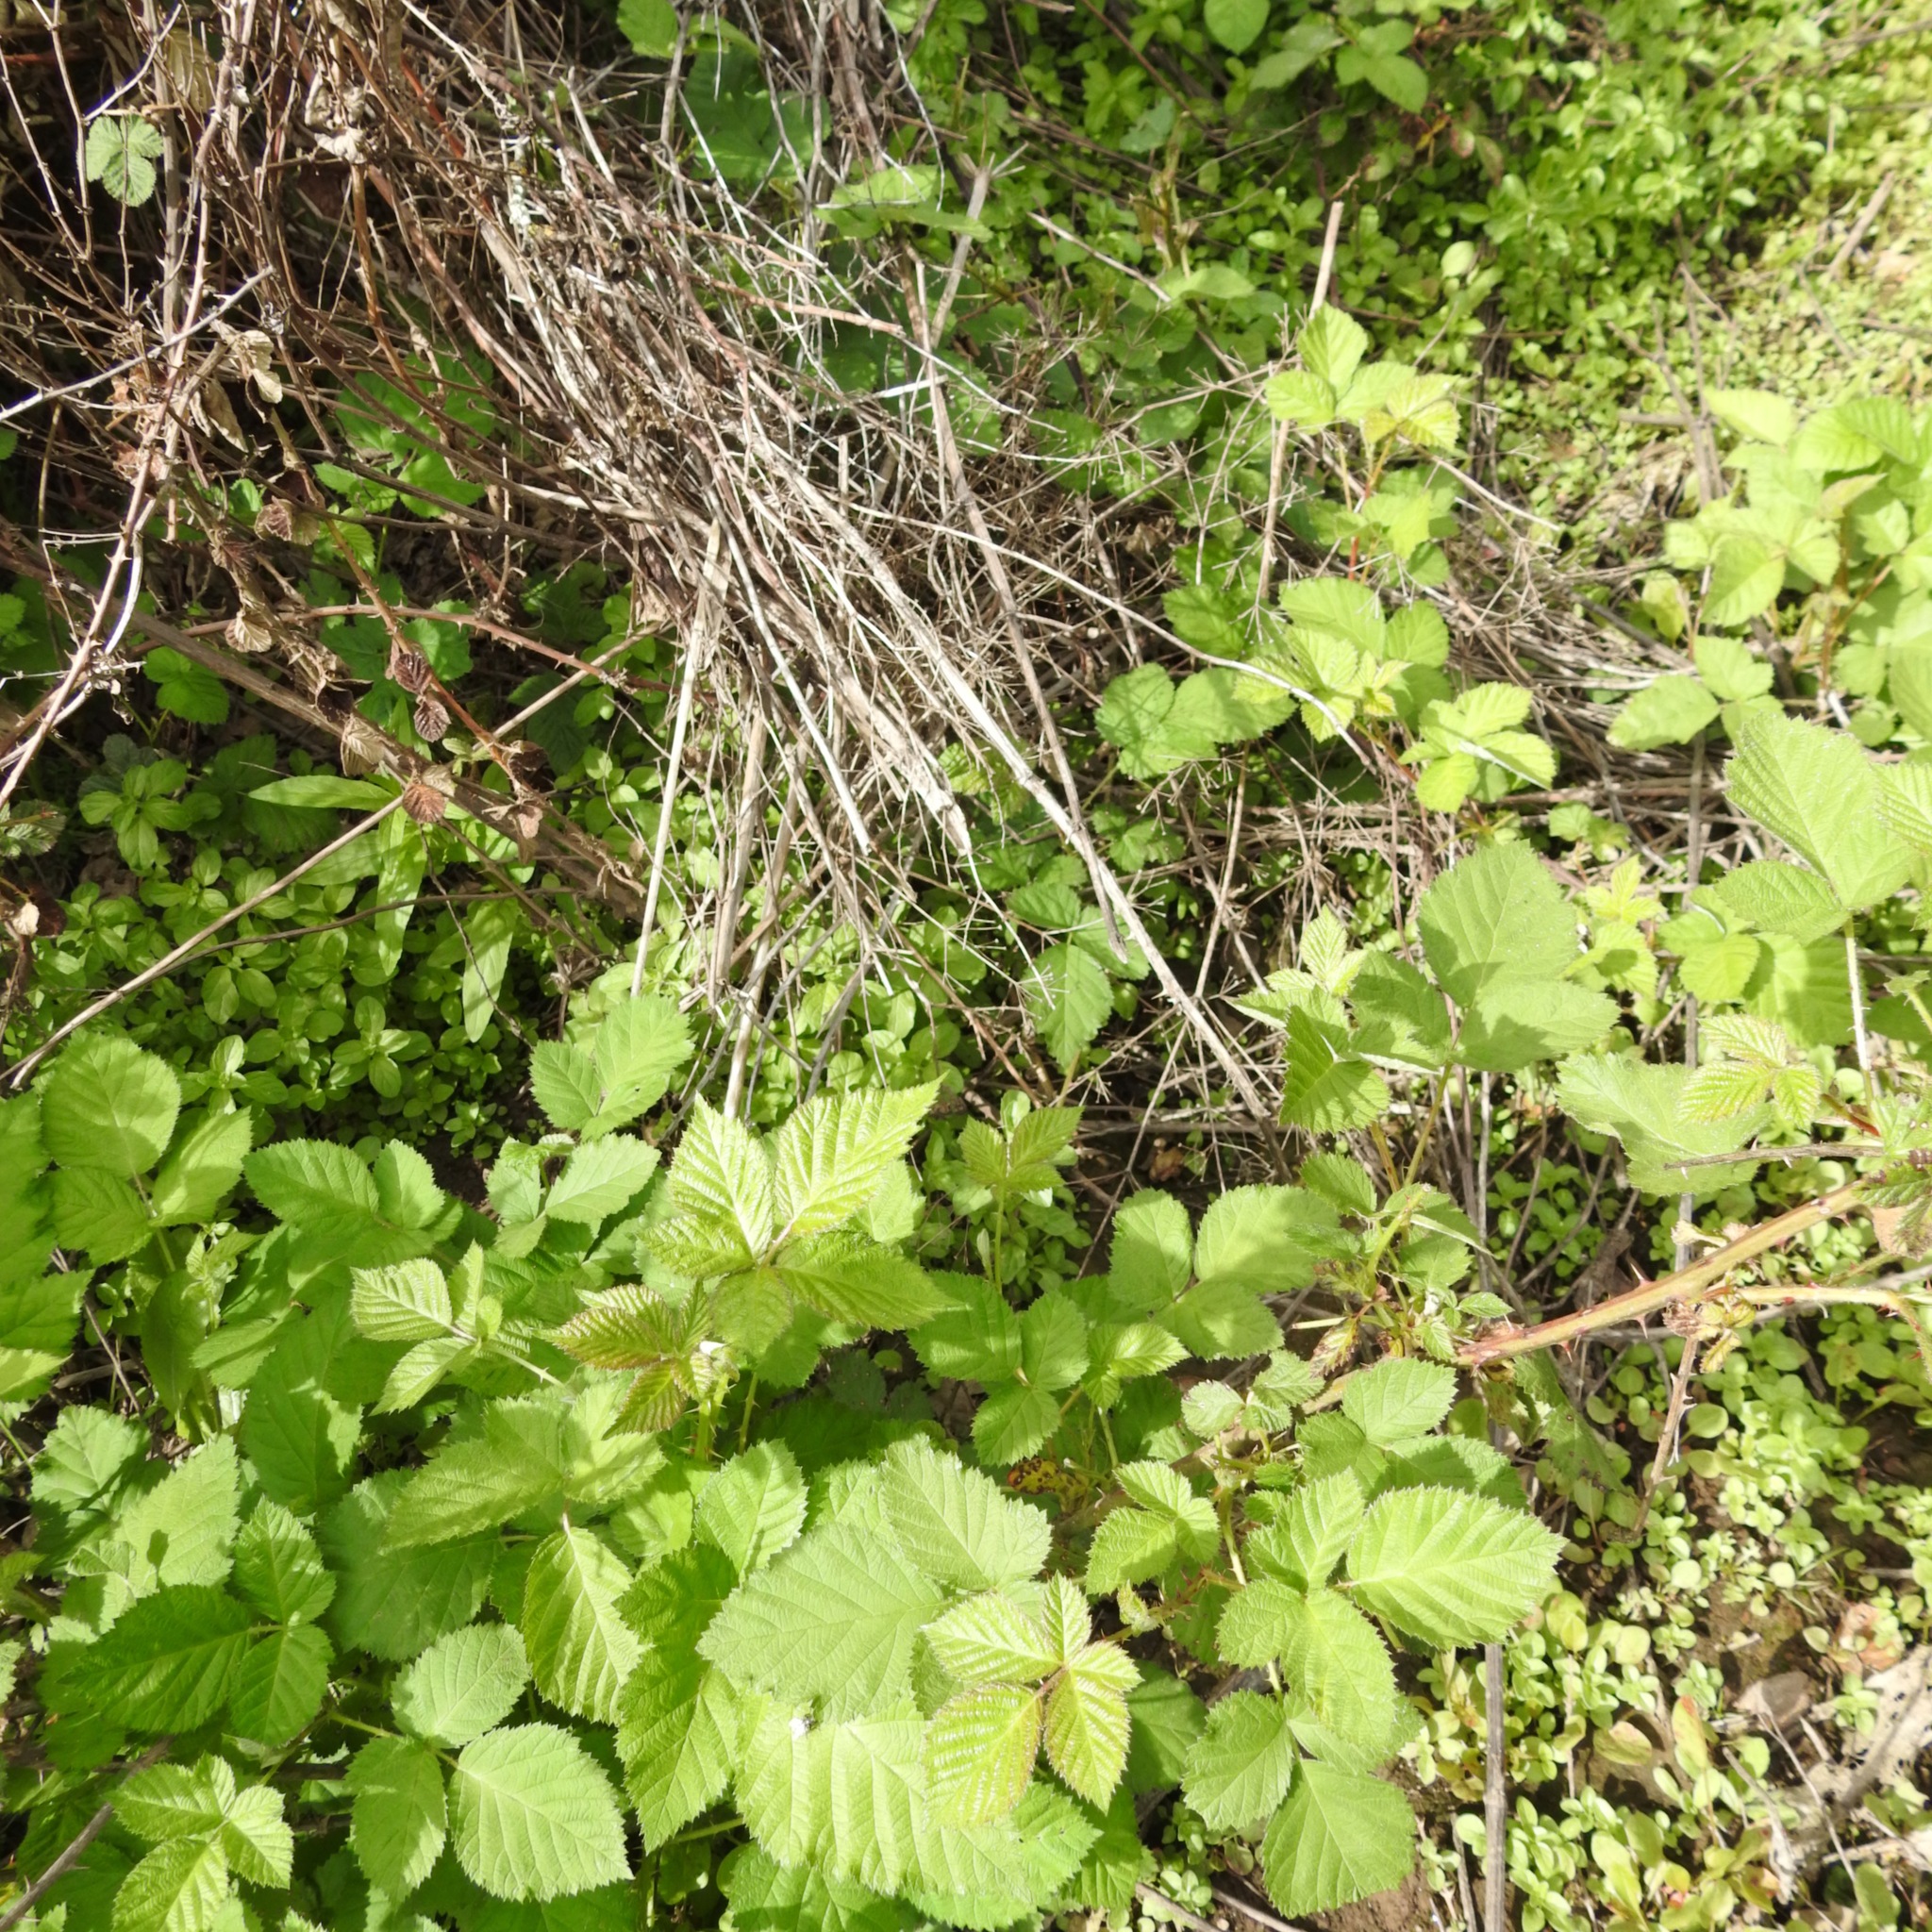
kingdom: Plantae
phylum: Tracheophyta
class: Magnoliopsida
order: Rosales
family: Rosaceae
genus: Rubus
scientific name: Rubus armeniacus
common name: Himalayan blackberry
